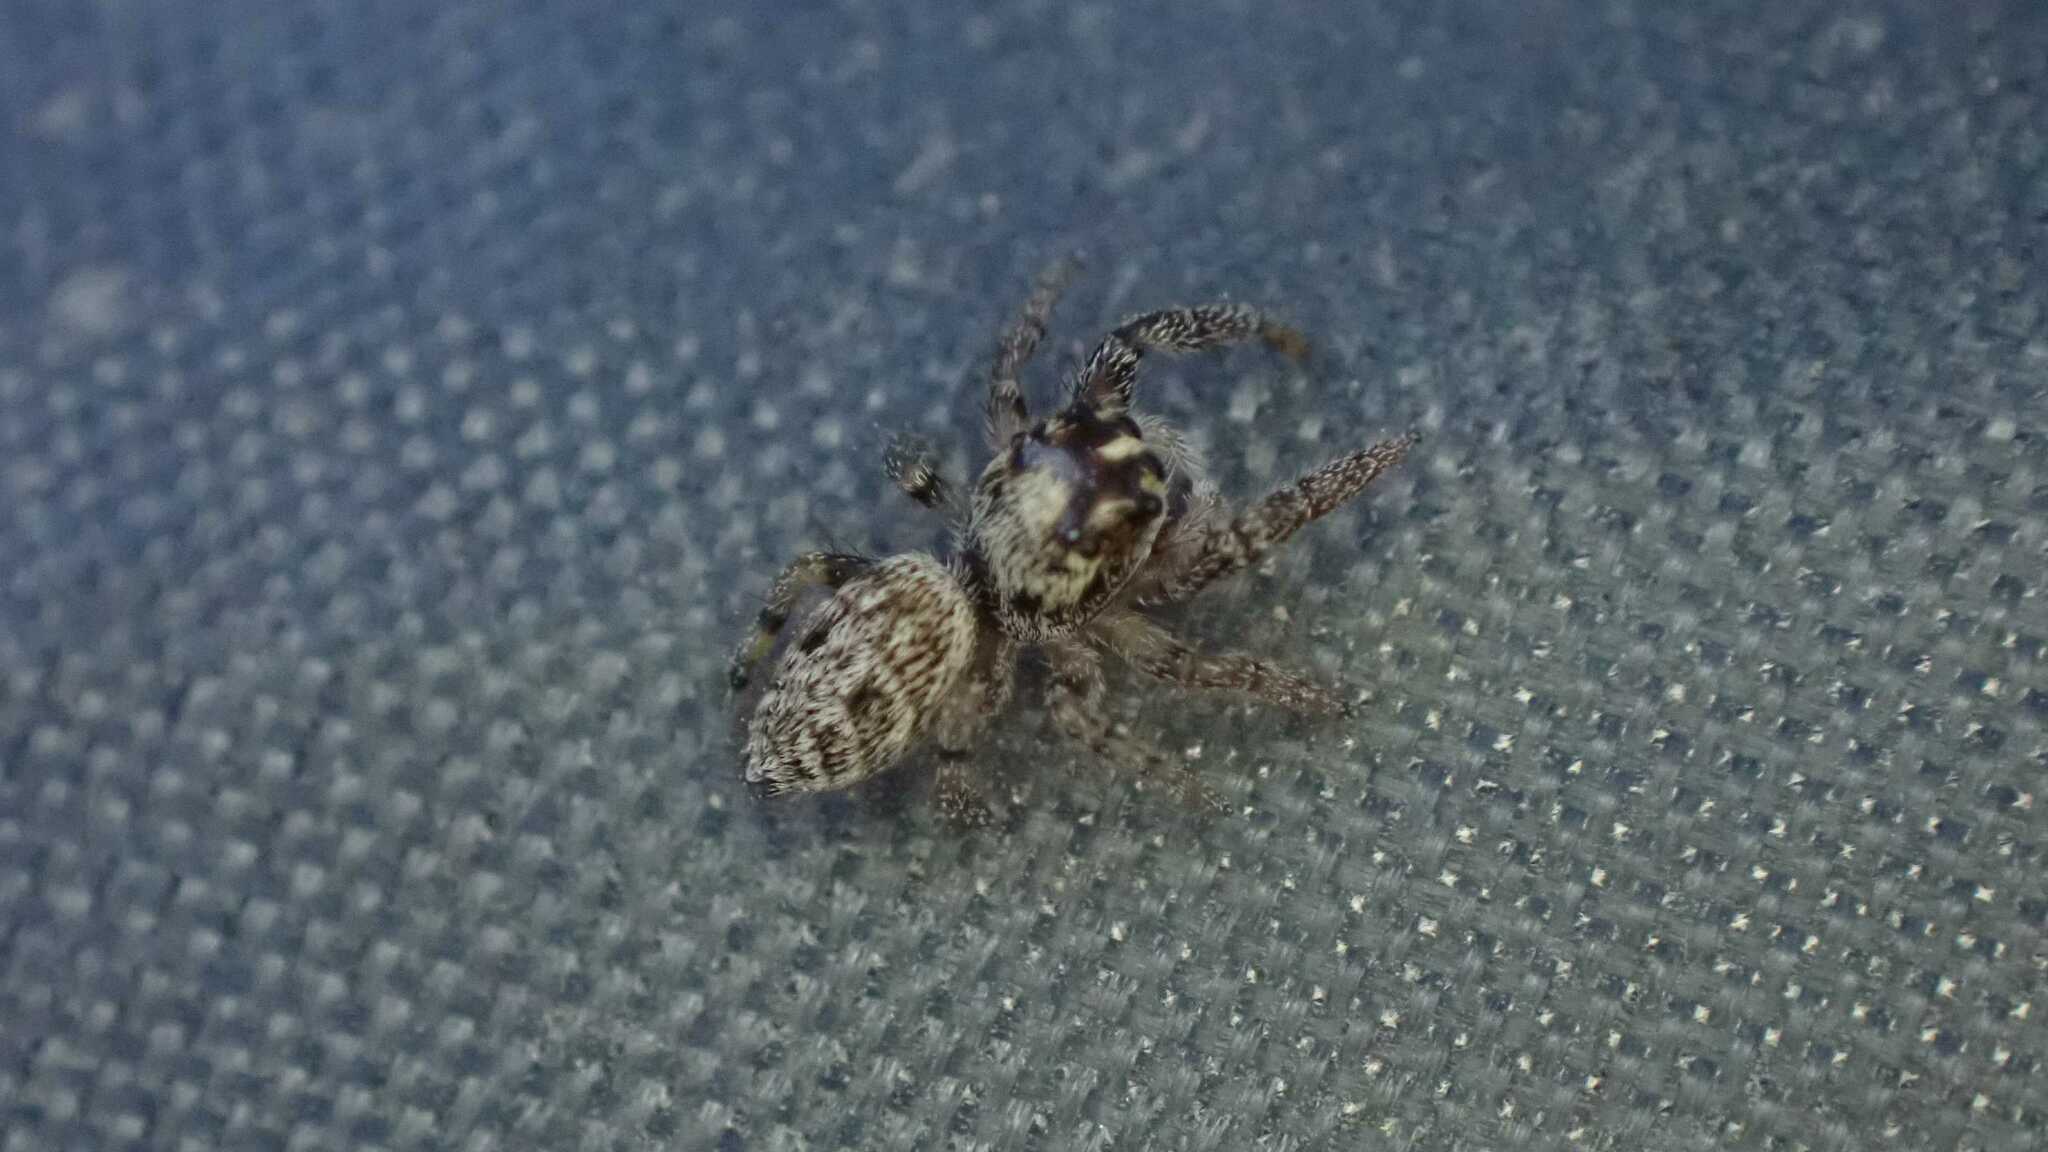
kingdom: Animalia
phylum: Arthropoda
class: Arachnida
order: Araneae
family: Salticidae
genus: Macaroeris
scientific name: Macaroeris nidicolens
